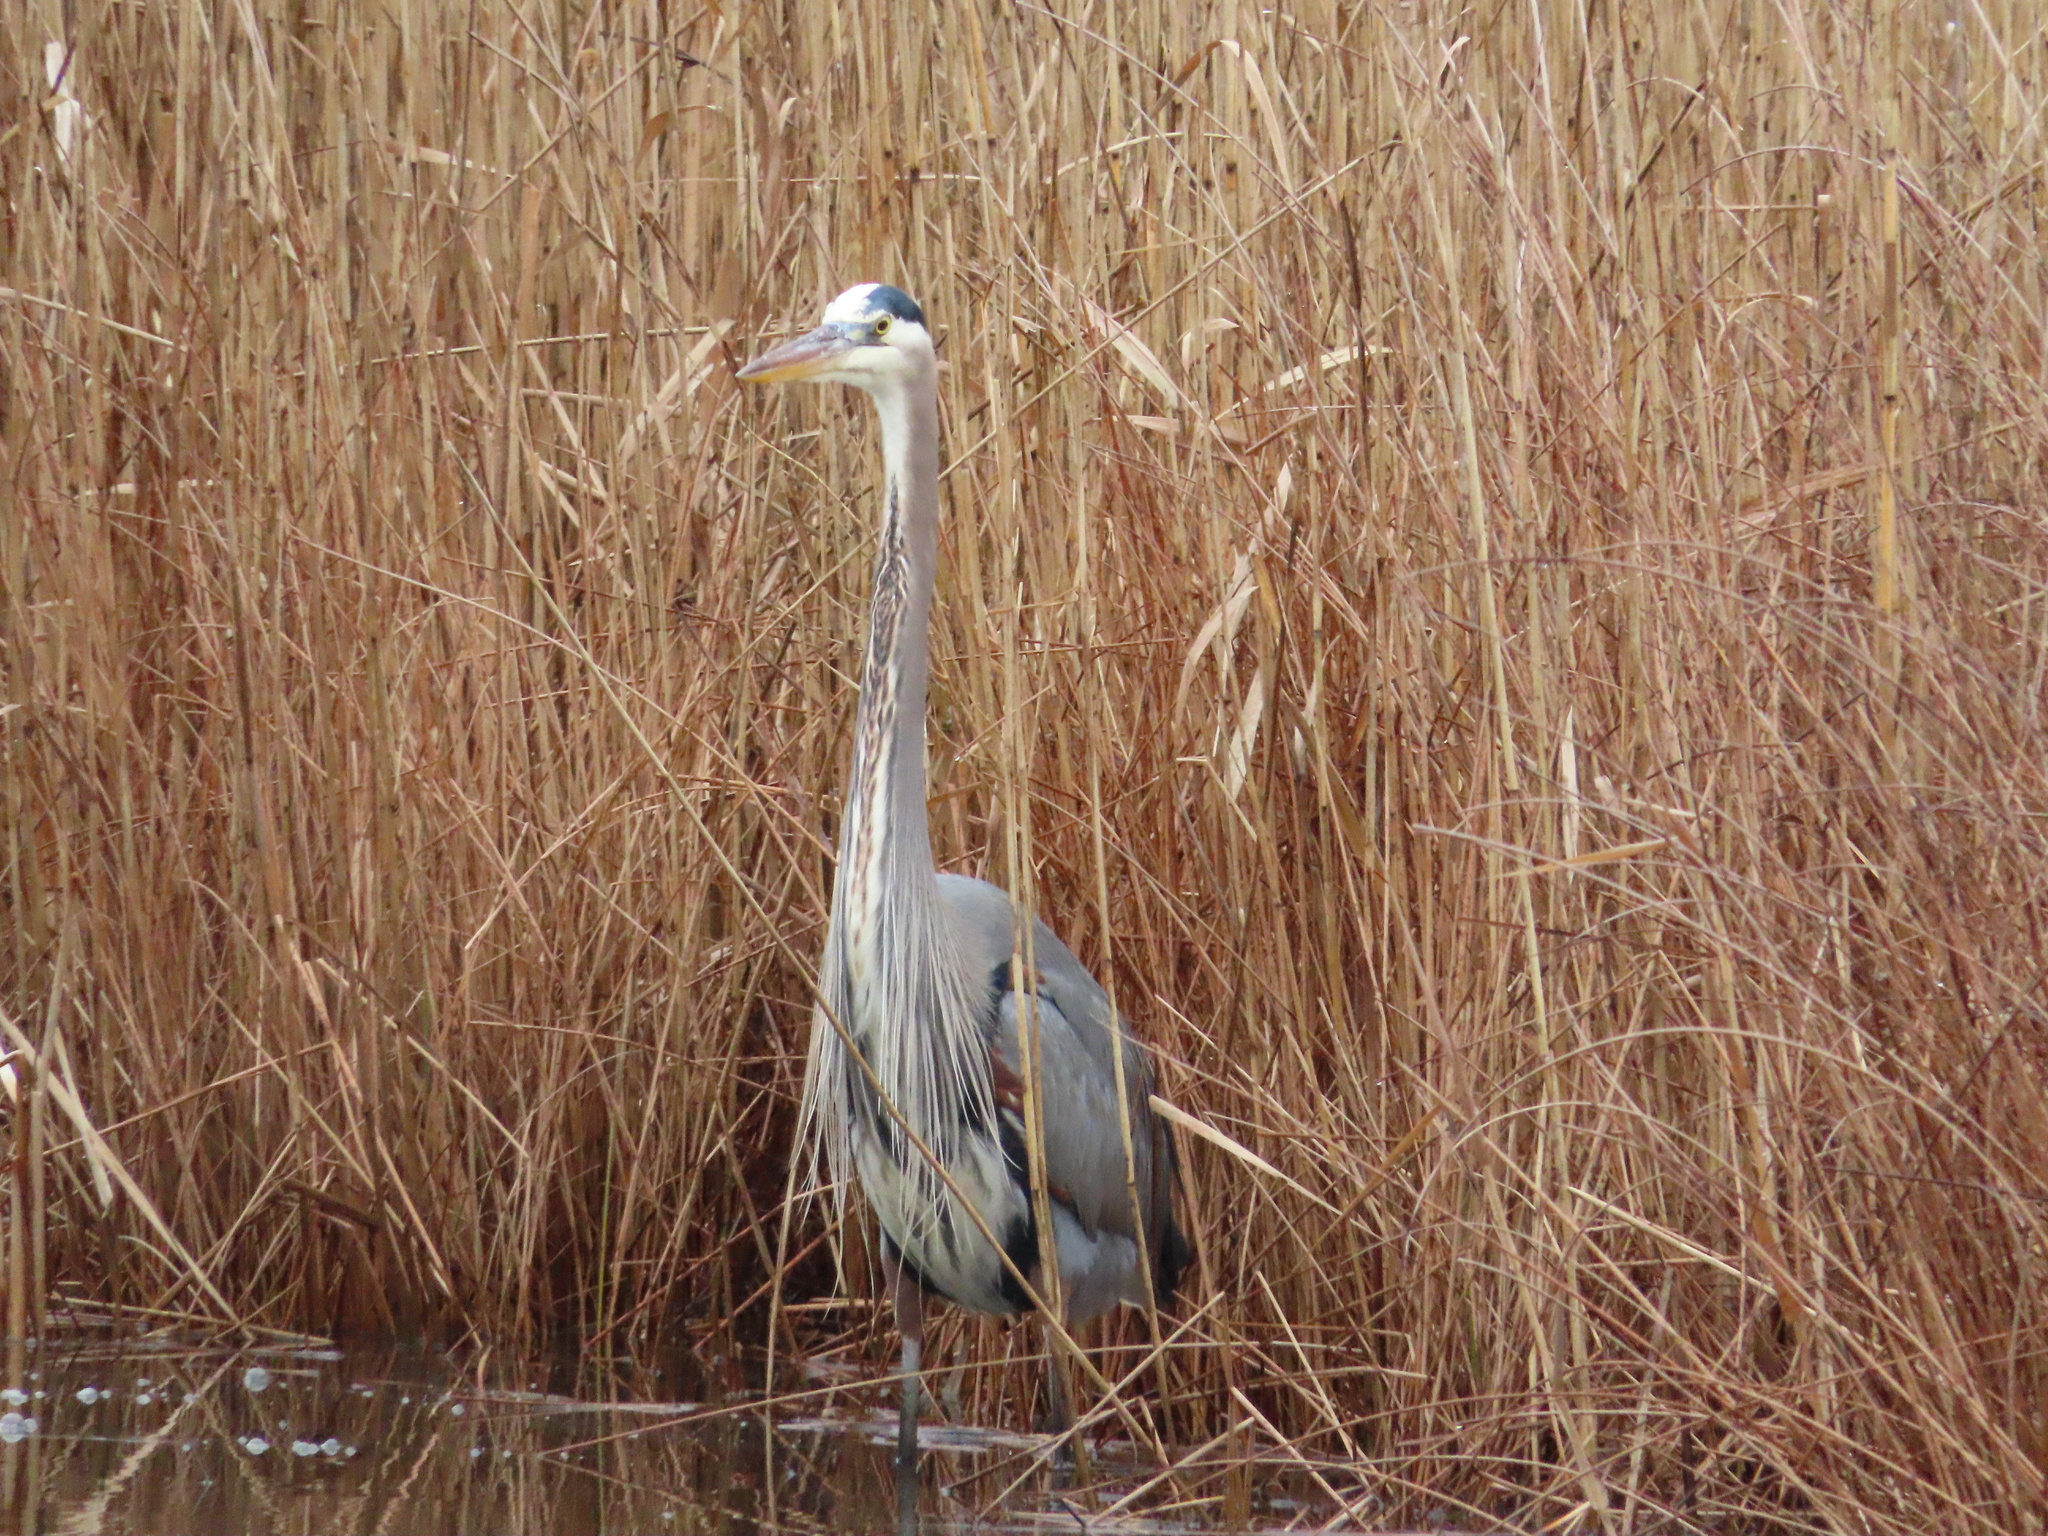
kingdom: Animalia
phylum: Chordata
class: Aves
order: Pelecaniformes
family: Ardeidae
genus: Ardea
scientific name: Ardea herodias
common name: Great blue heron
